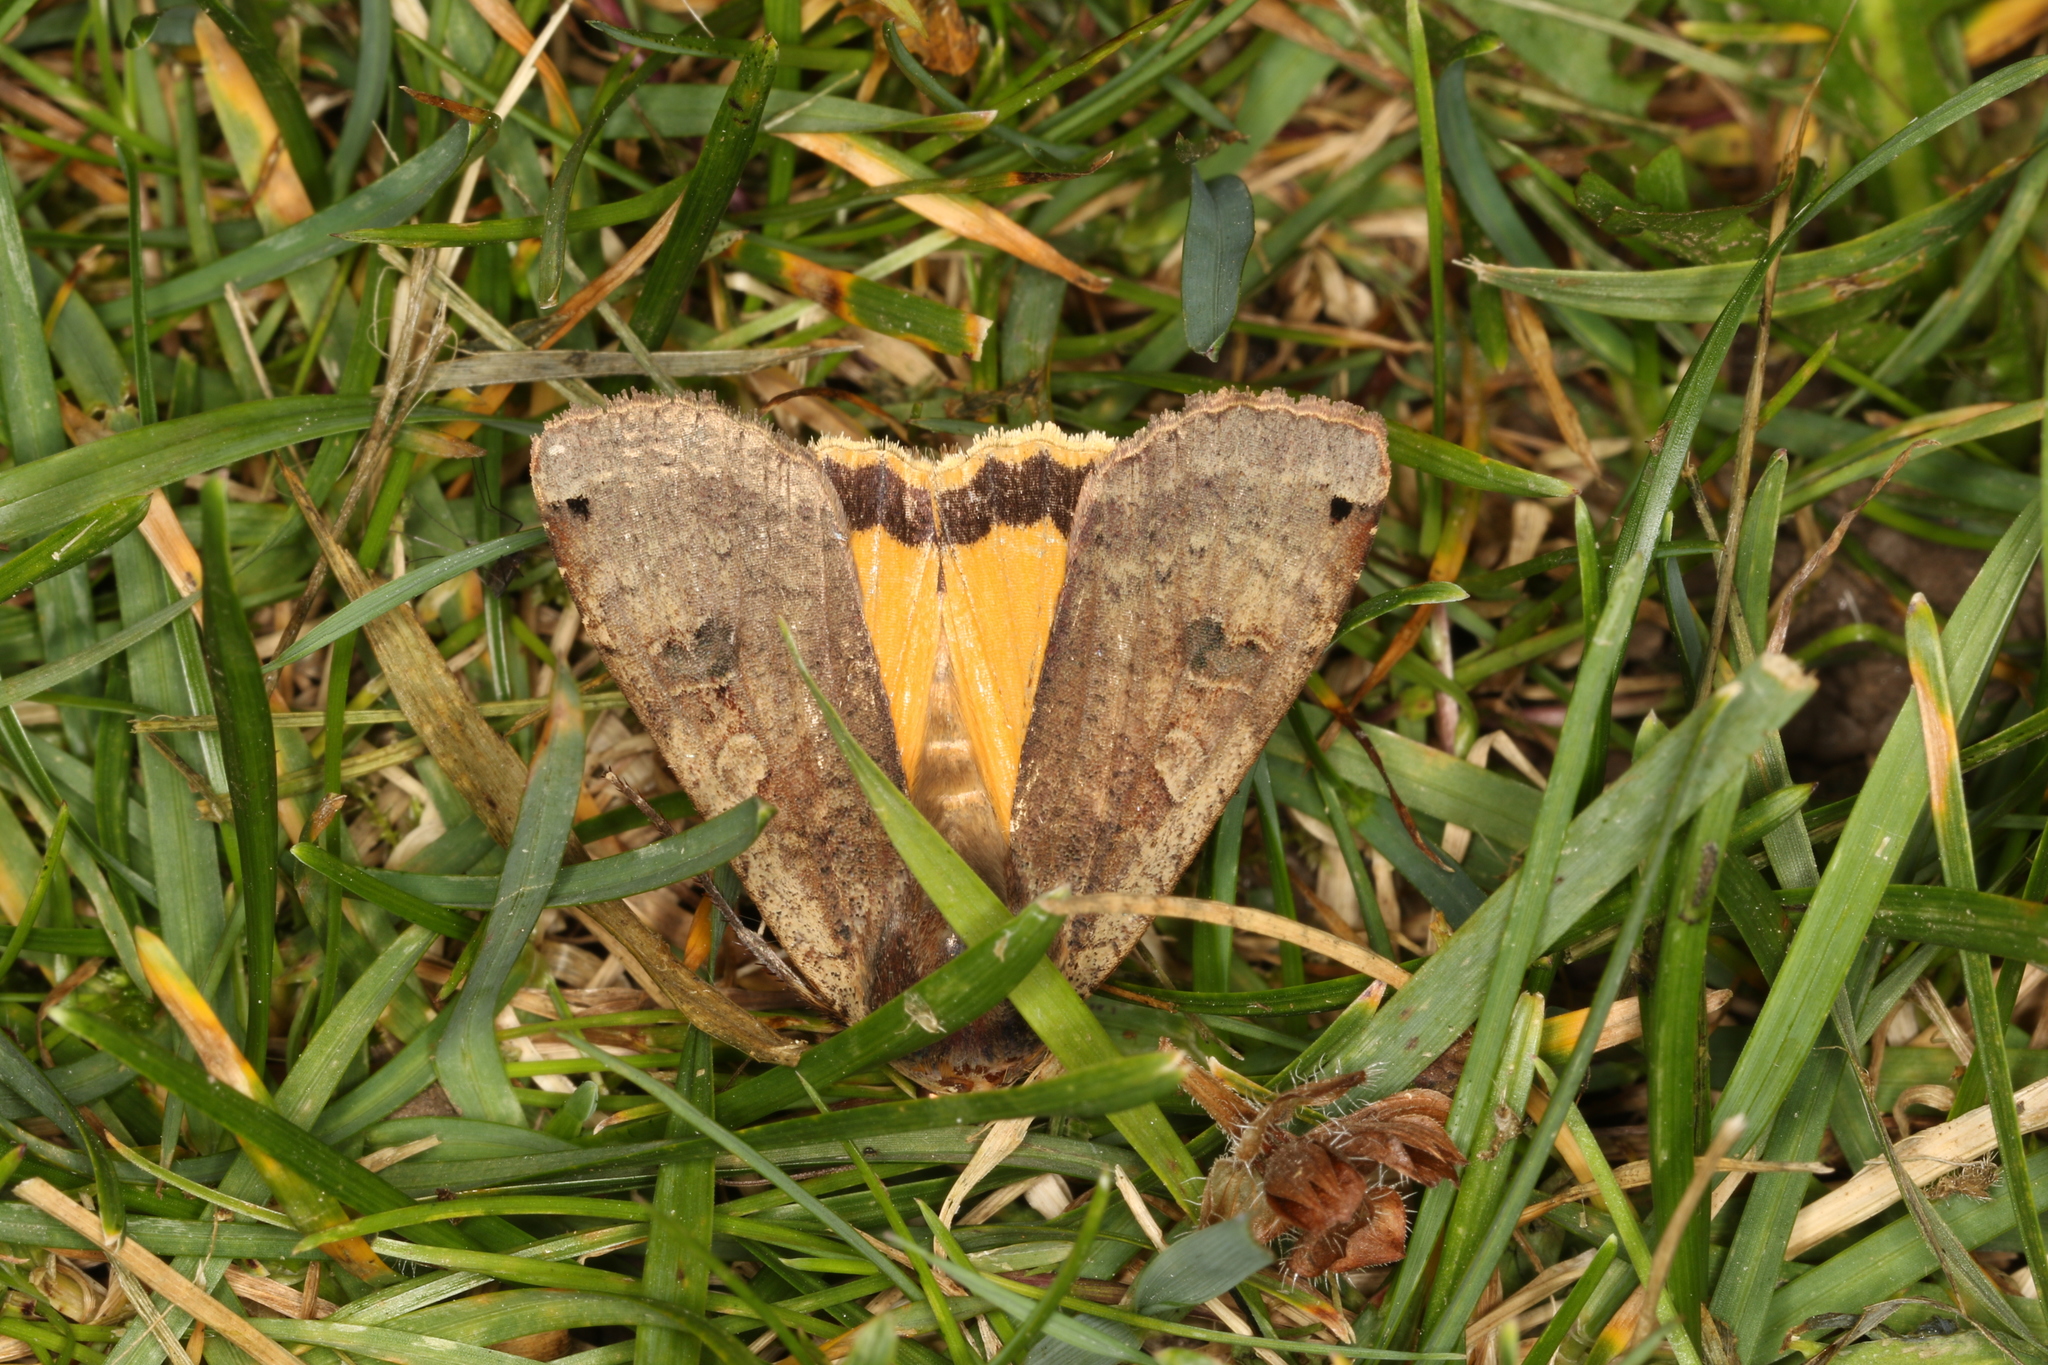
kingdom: Animalia
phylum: Arthropoda
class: Insecta
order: Lepidoptera
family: Noctuidae
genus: Noctua
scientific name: Noctua pronuba
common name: Large yellow underwing
